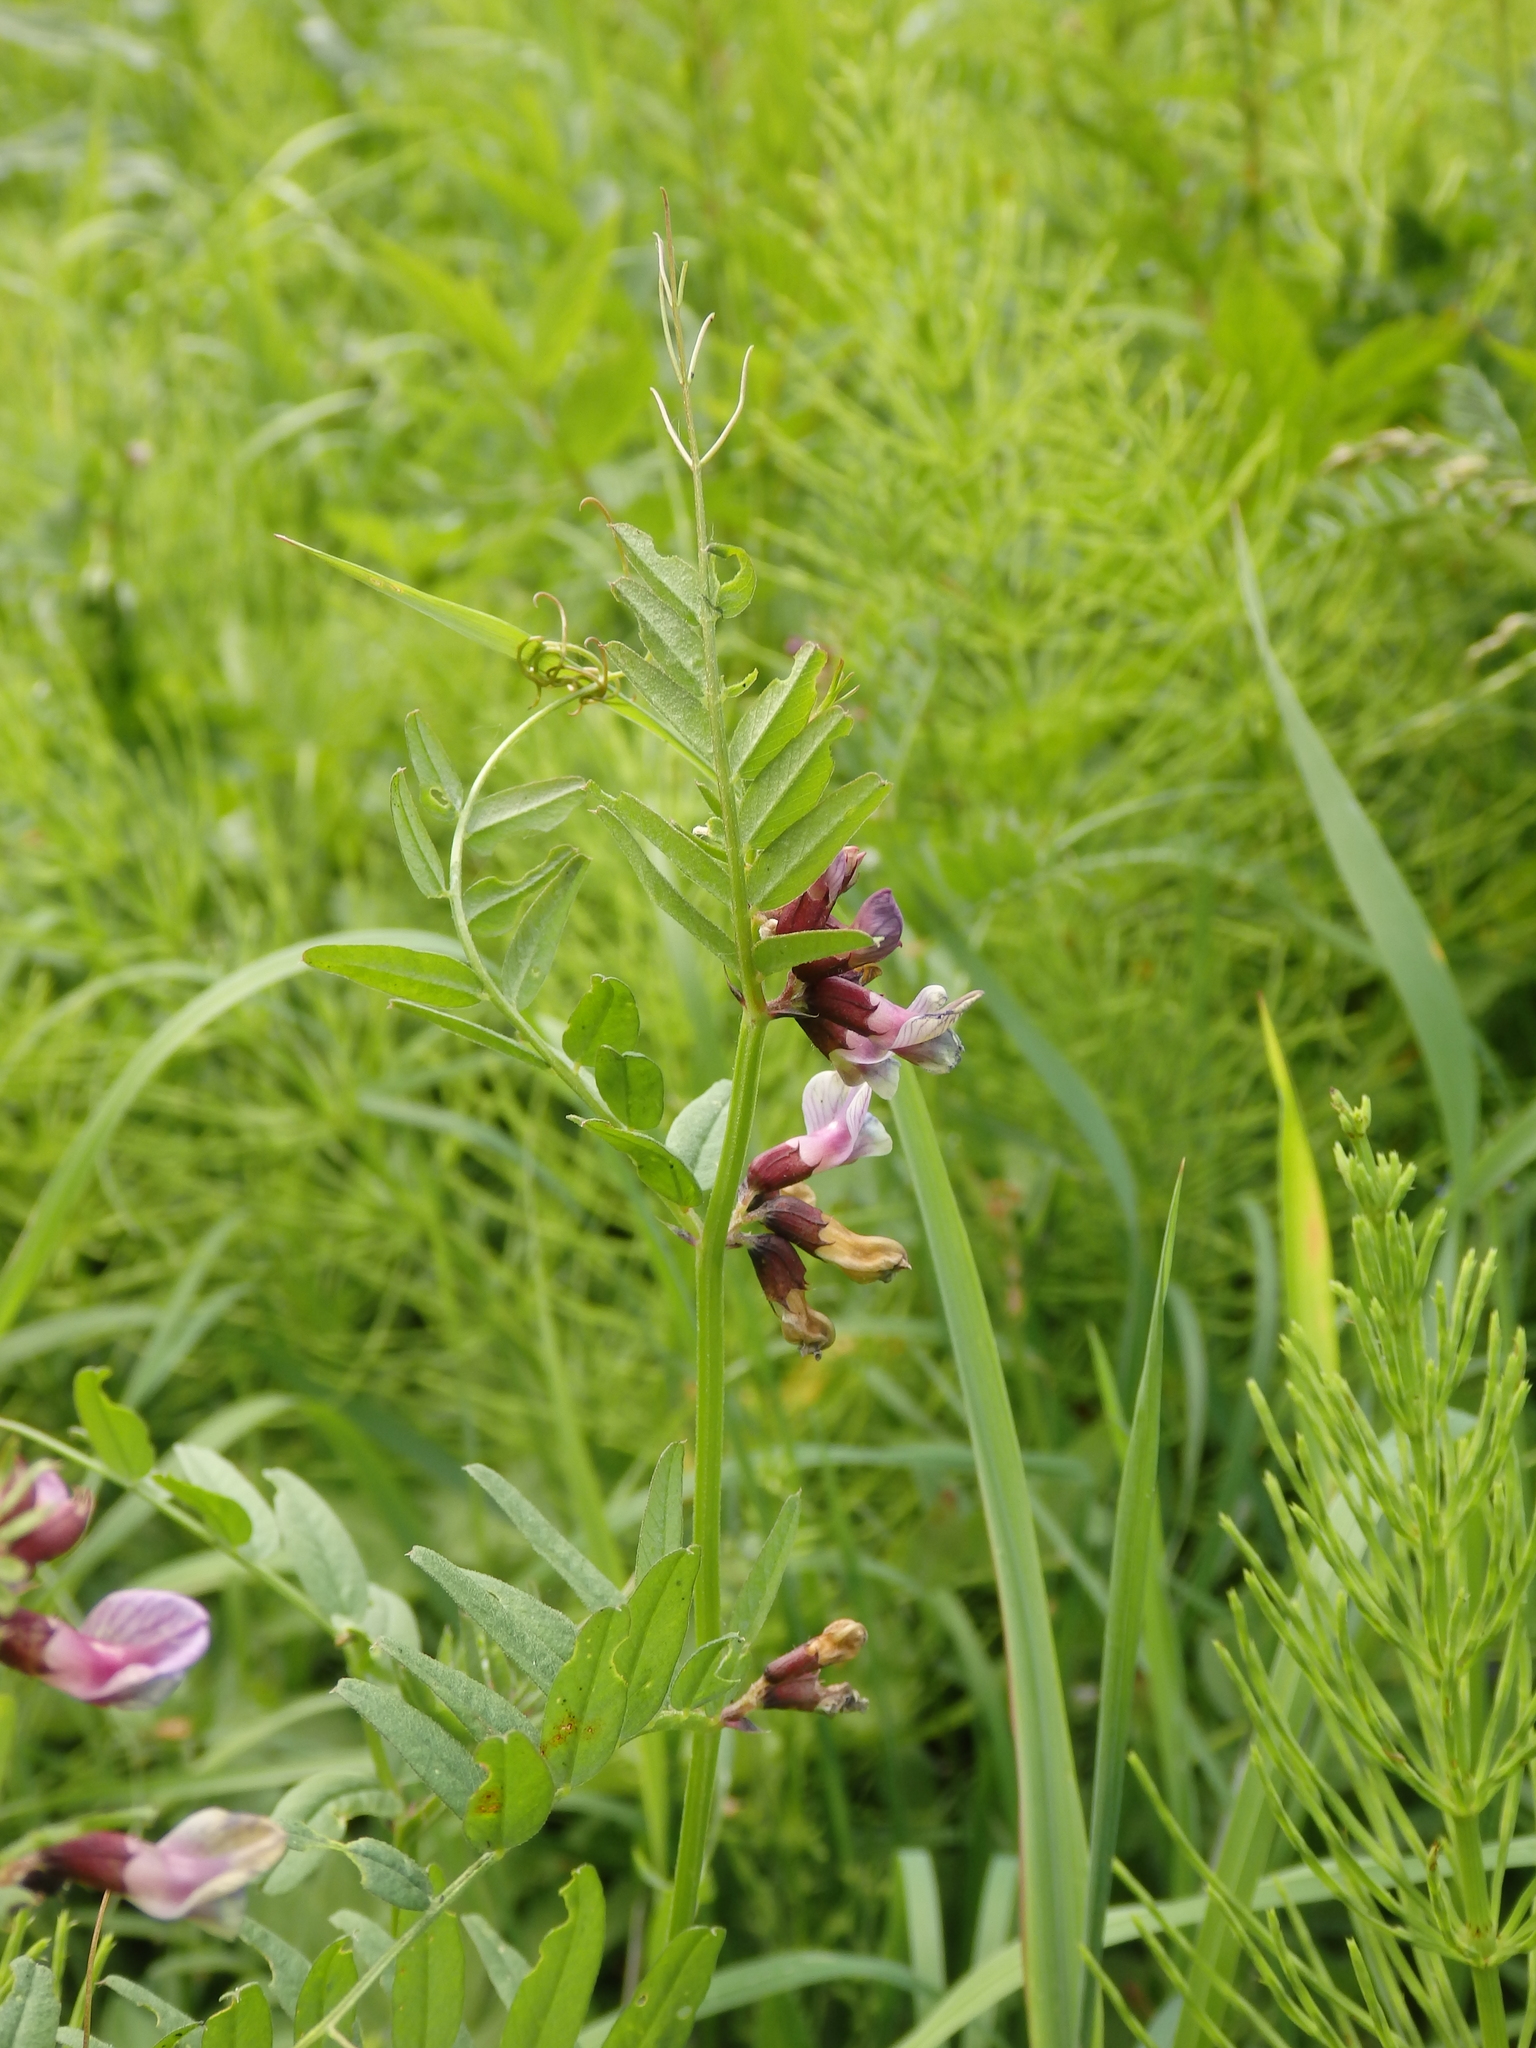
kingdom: Plantae
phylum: Tracheophyta
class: Magnoliopsida
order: Fabales
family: Fabaceae
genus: Vicia
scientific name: Vicia sepium
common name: Bush vetch
